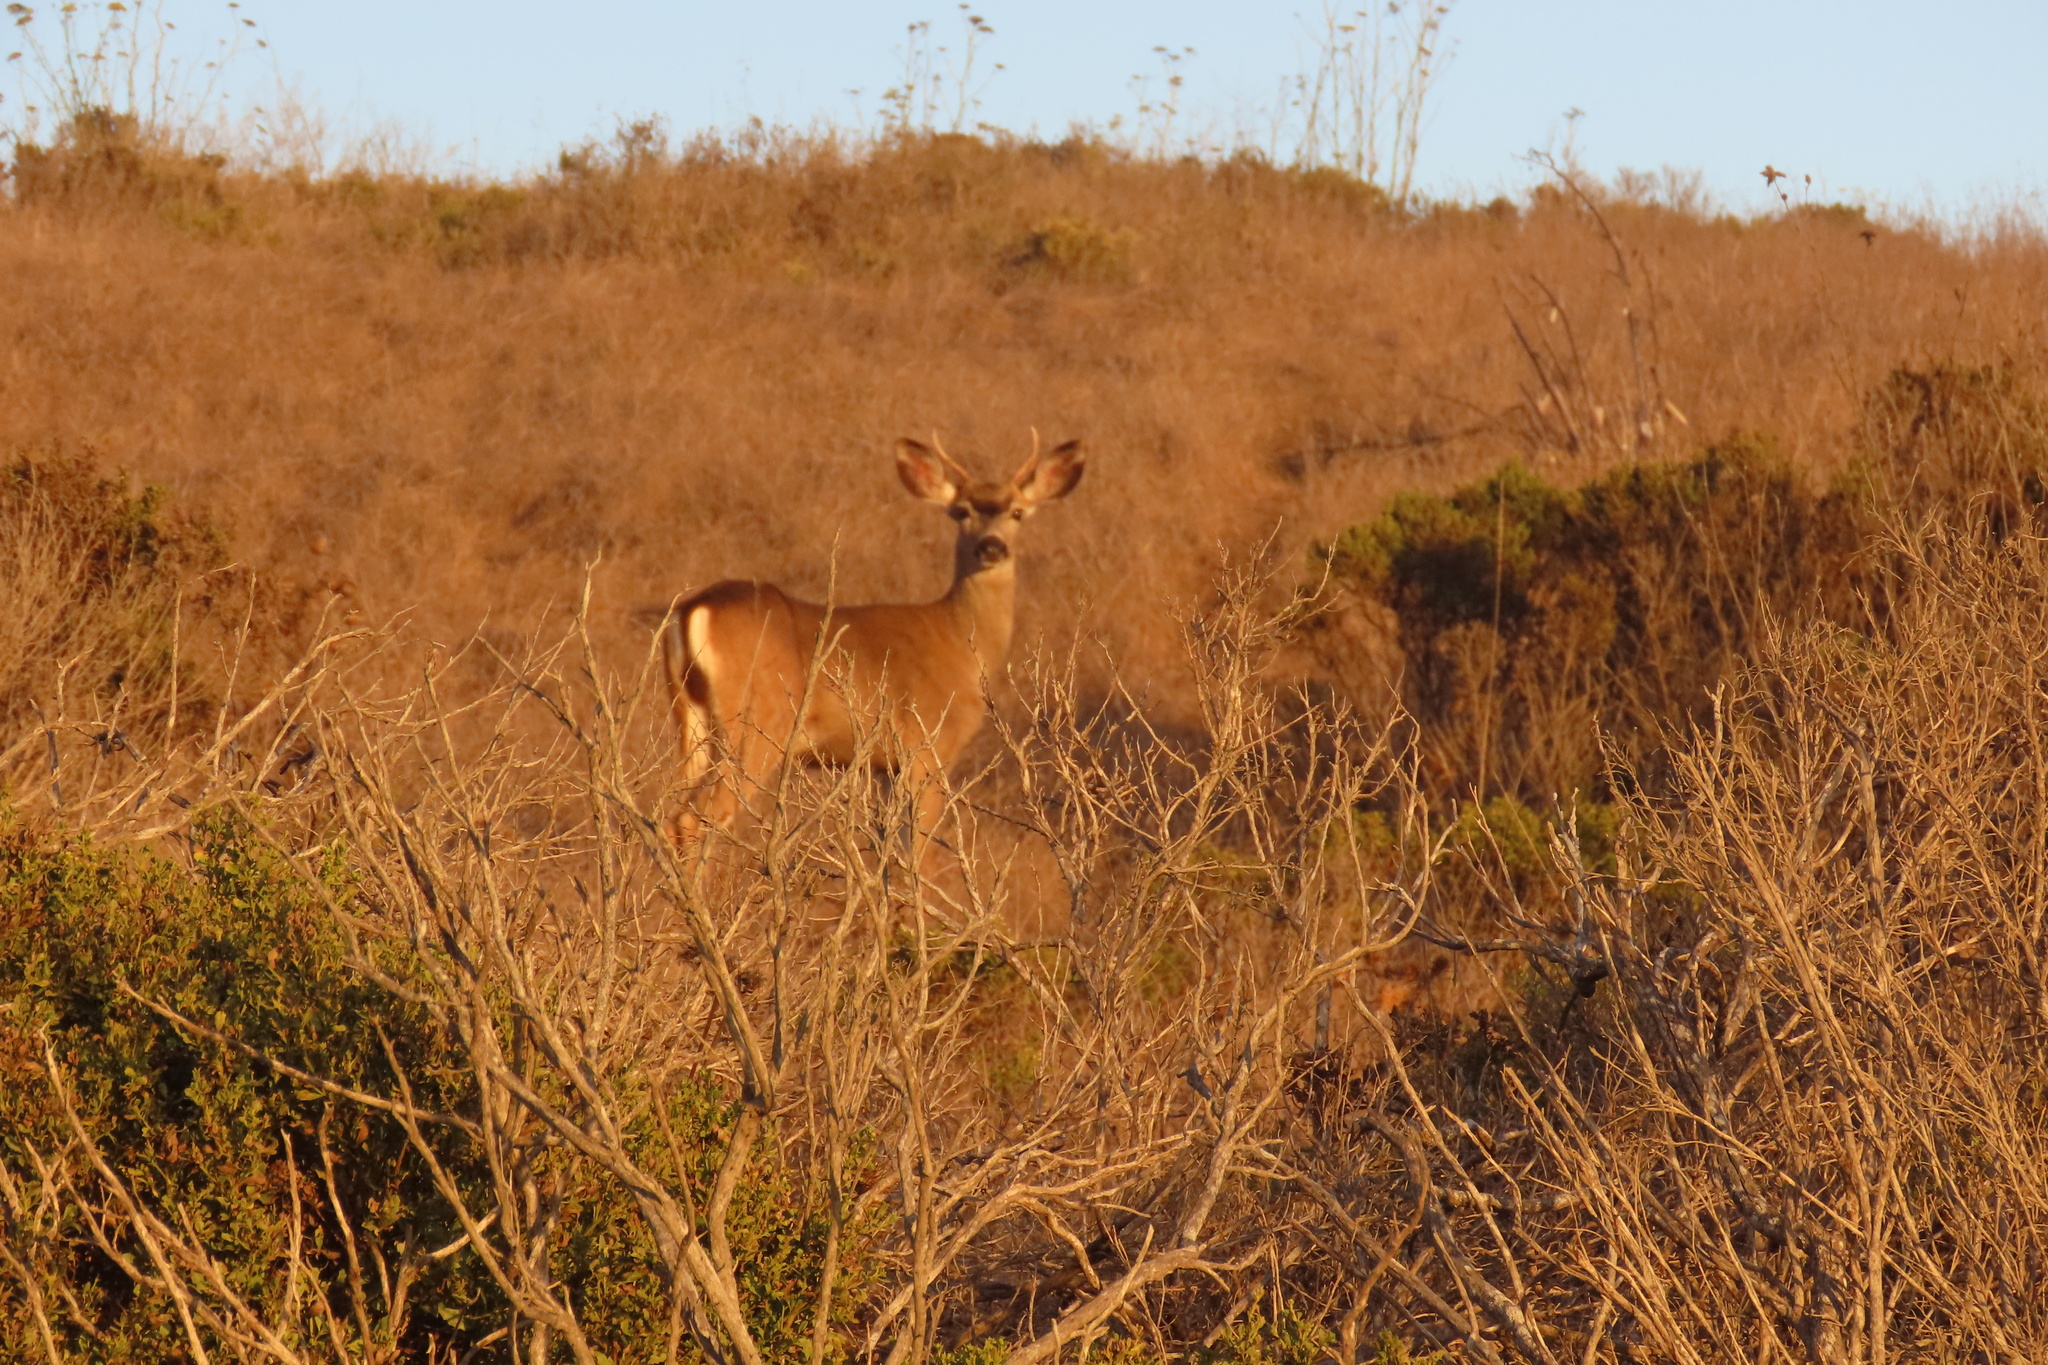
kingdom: Animalia
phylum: Chordata
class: Mammalia
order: Artiodactyla
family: Cervidae
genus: Odocoileus
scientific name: Odocoileus hemionus
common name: Mule deer
